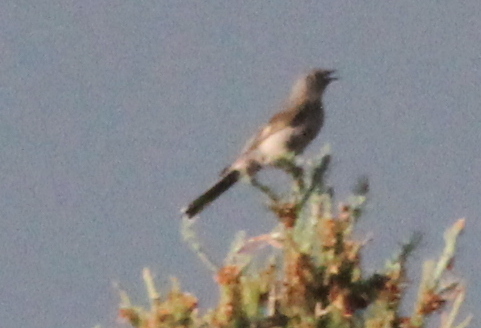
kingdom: Animalia
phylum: Chordata
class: Aves
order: Passeriformes
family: Turdidae
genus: Myadestes
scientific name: Myadestes townsendi
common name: Townsend's solitaire
